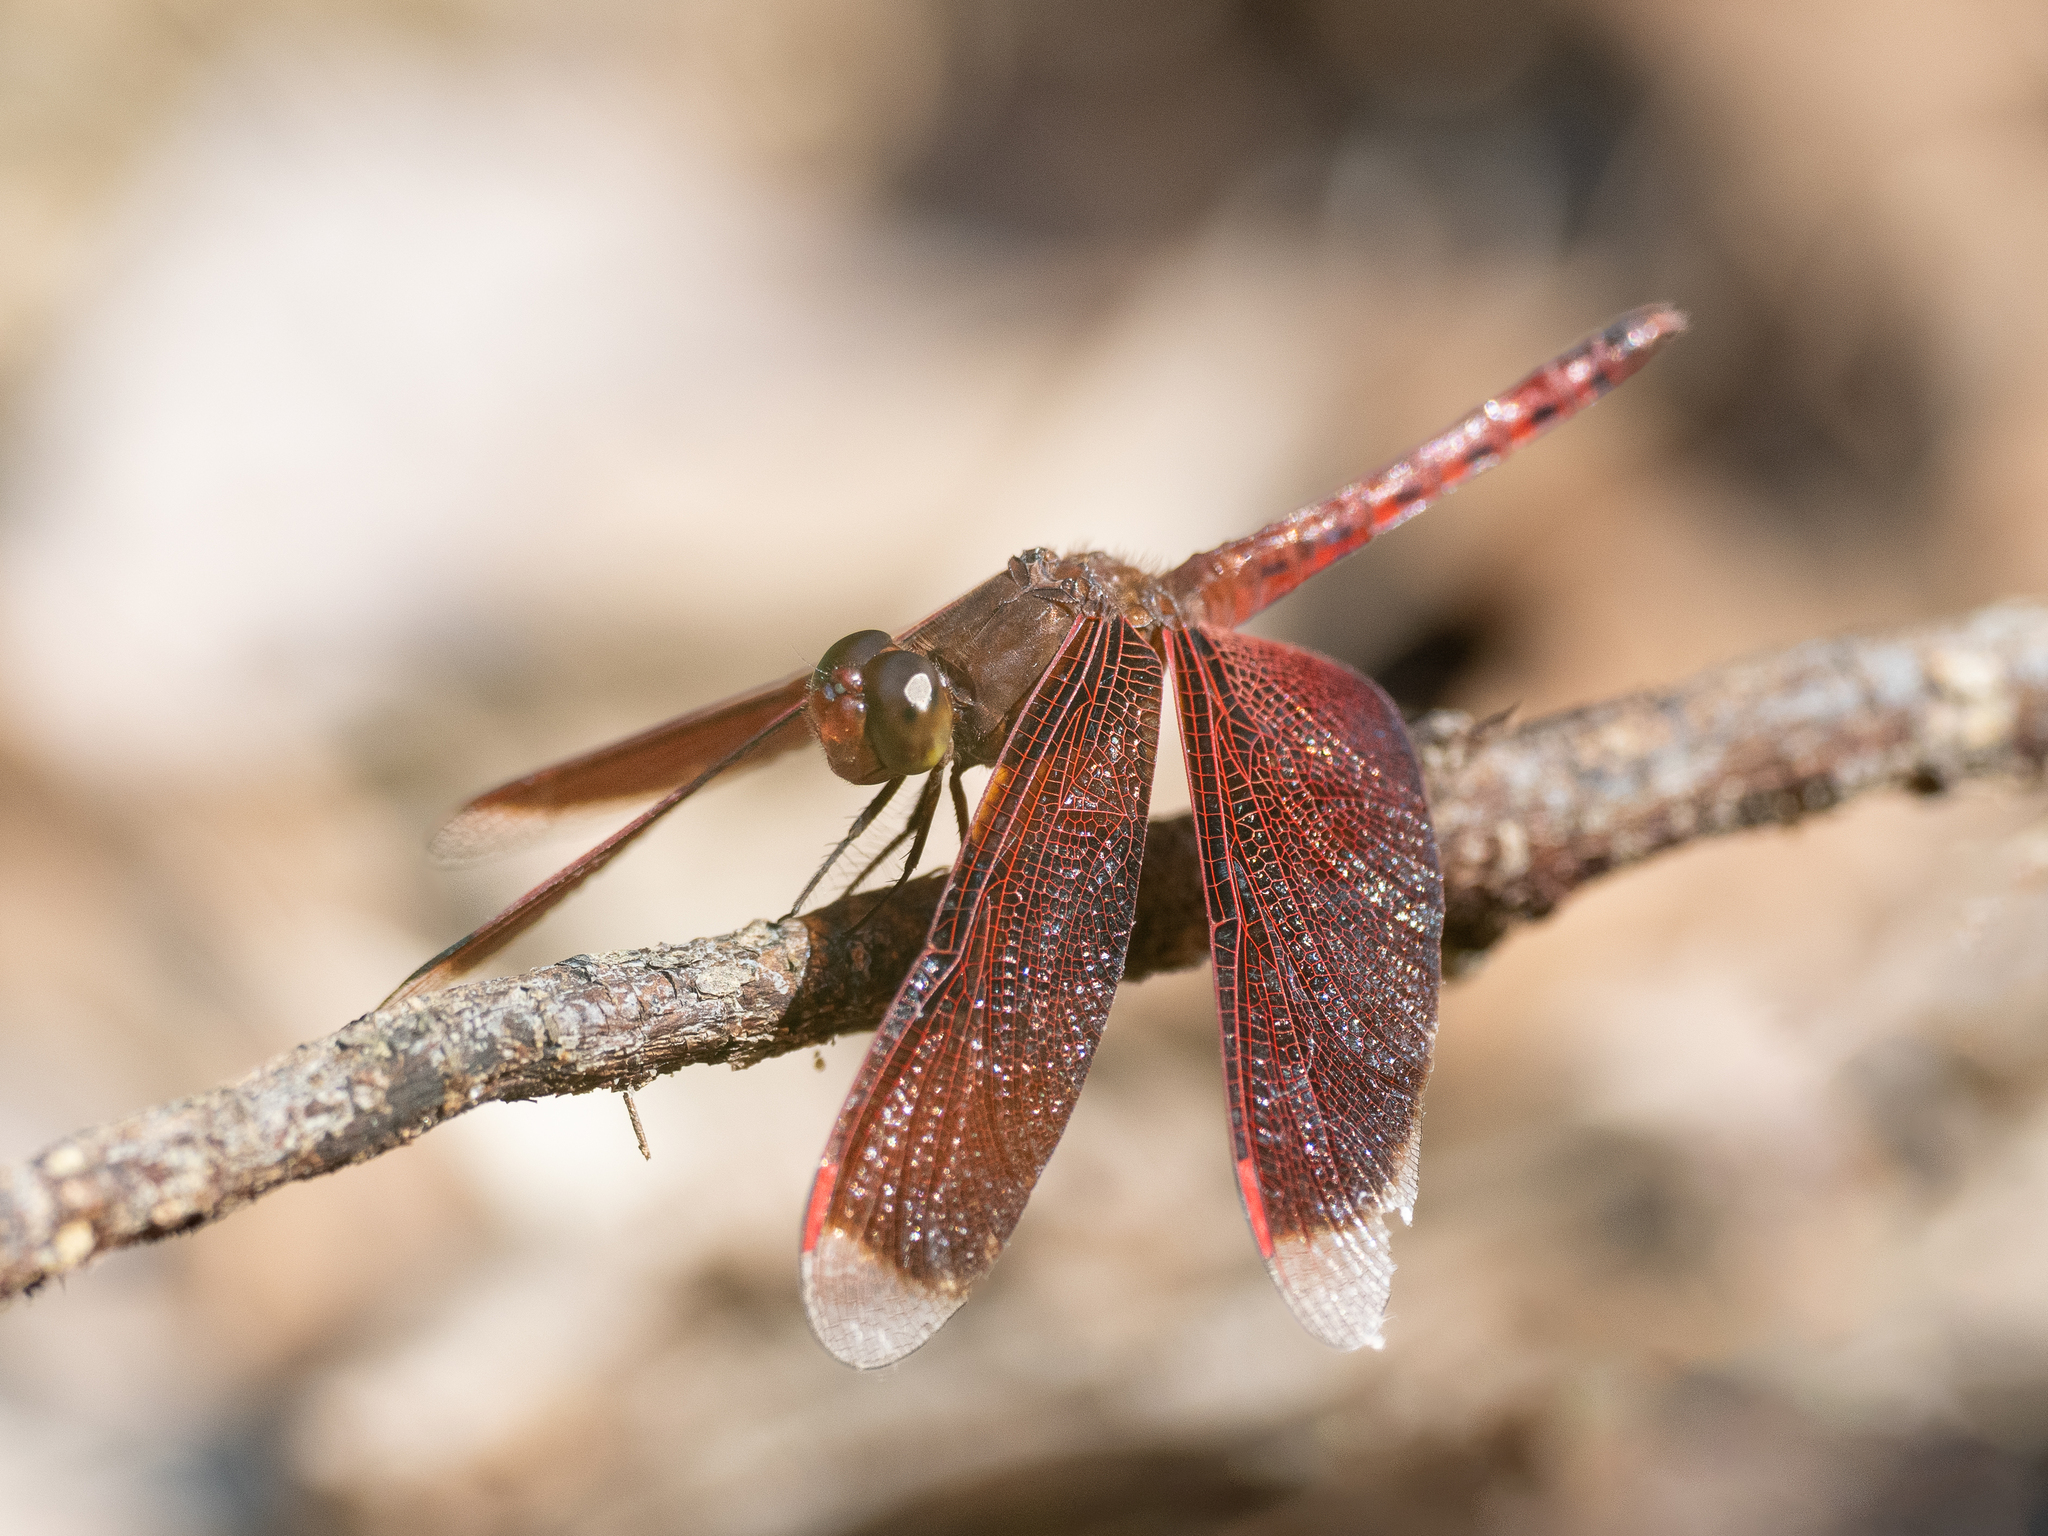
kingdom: Animalia
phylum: Arthropoda
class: Insecta
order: Odonata
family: Libellulidae
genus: Neurothemis
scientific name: Neurothemis fluctuans
